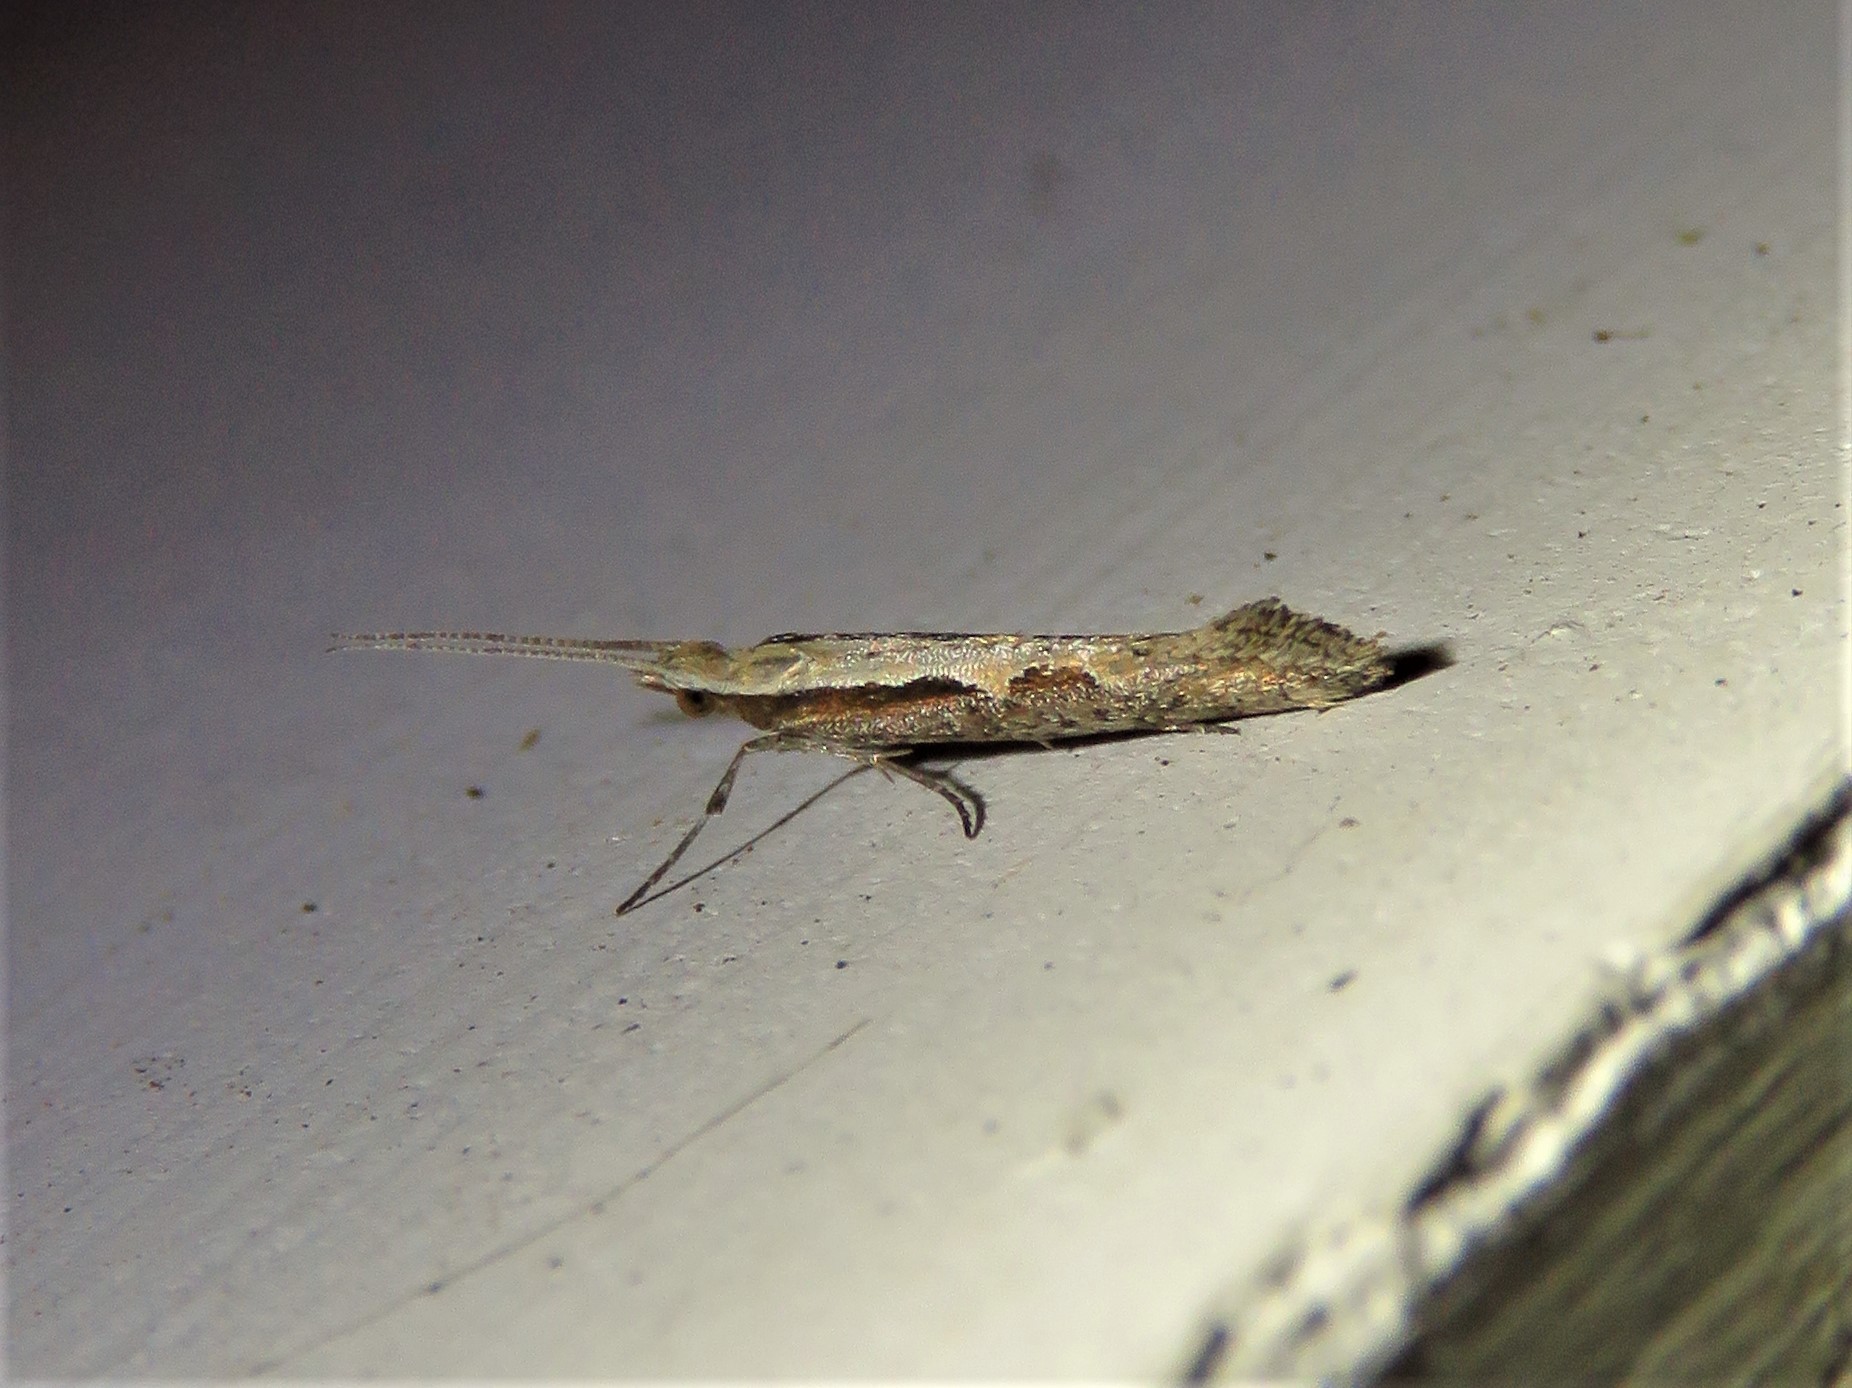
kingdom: Animalia
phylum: Arthropoda
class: Insecta
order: Lepidoptera
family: Plutellidae
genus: Plutella
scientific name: Plutella xylostella
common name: Diamond-back moth
